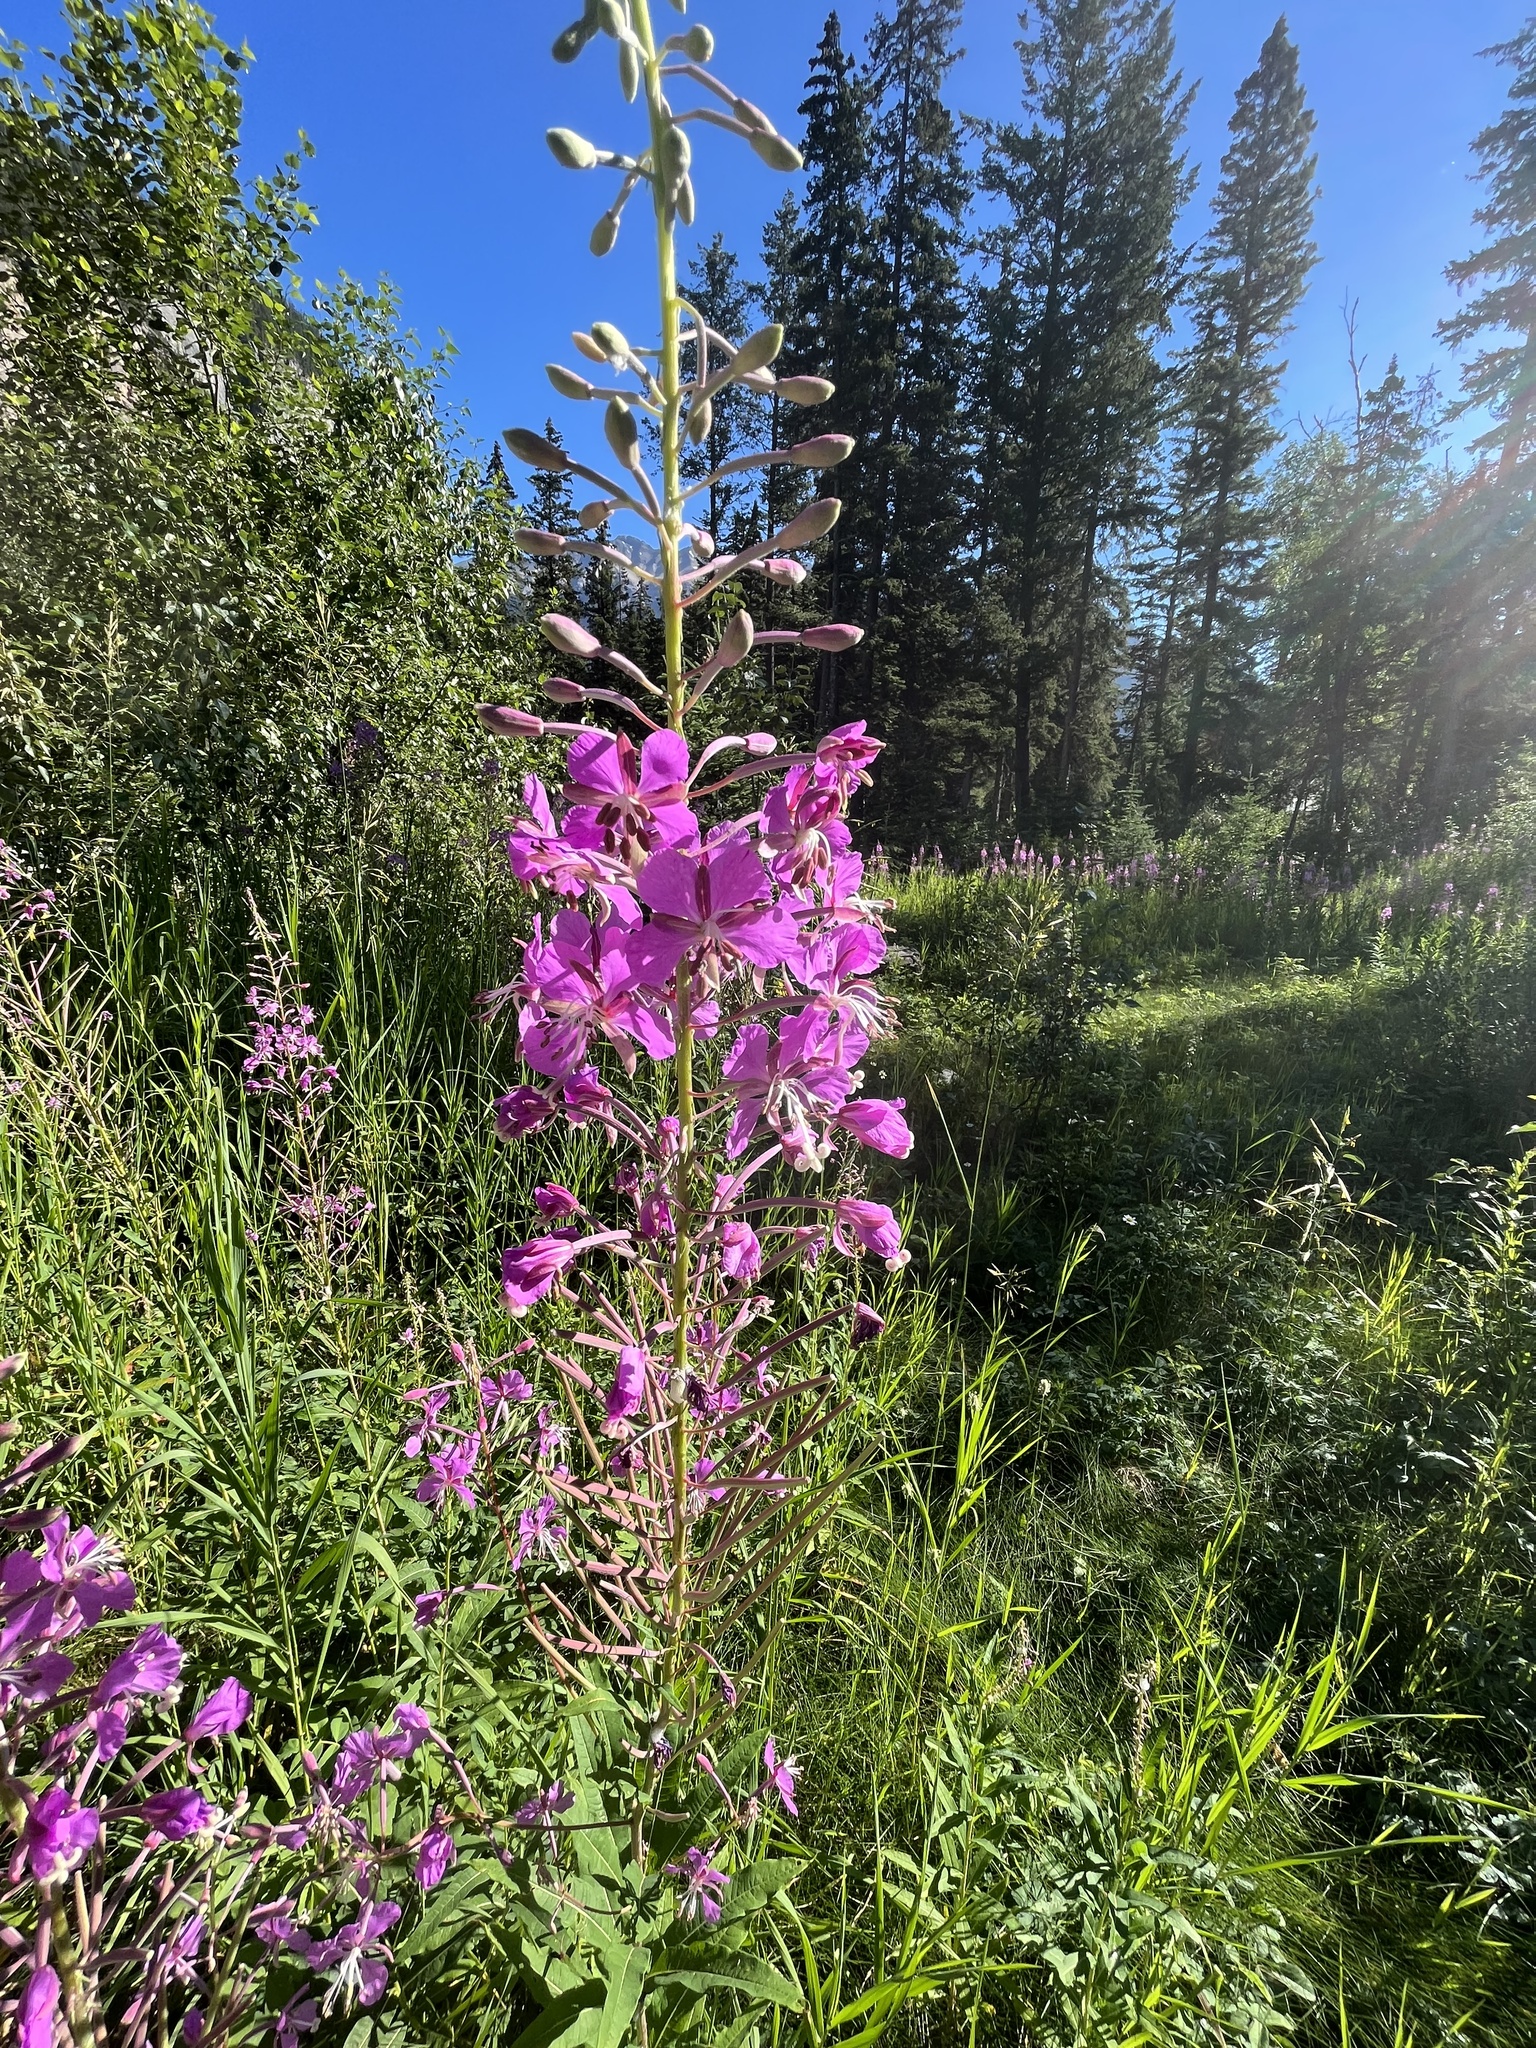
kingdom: Plantae
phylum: Tracheophyta
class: Magnoliopsida
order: Myrtales
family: Onagraceae
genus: Chamaenerion
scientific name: Chamaenerion angustifolium
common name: Fireweed
